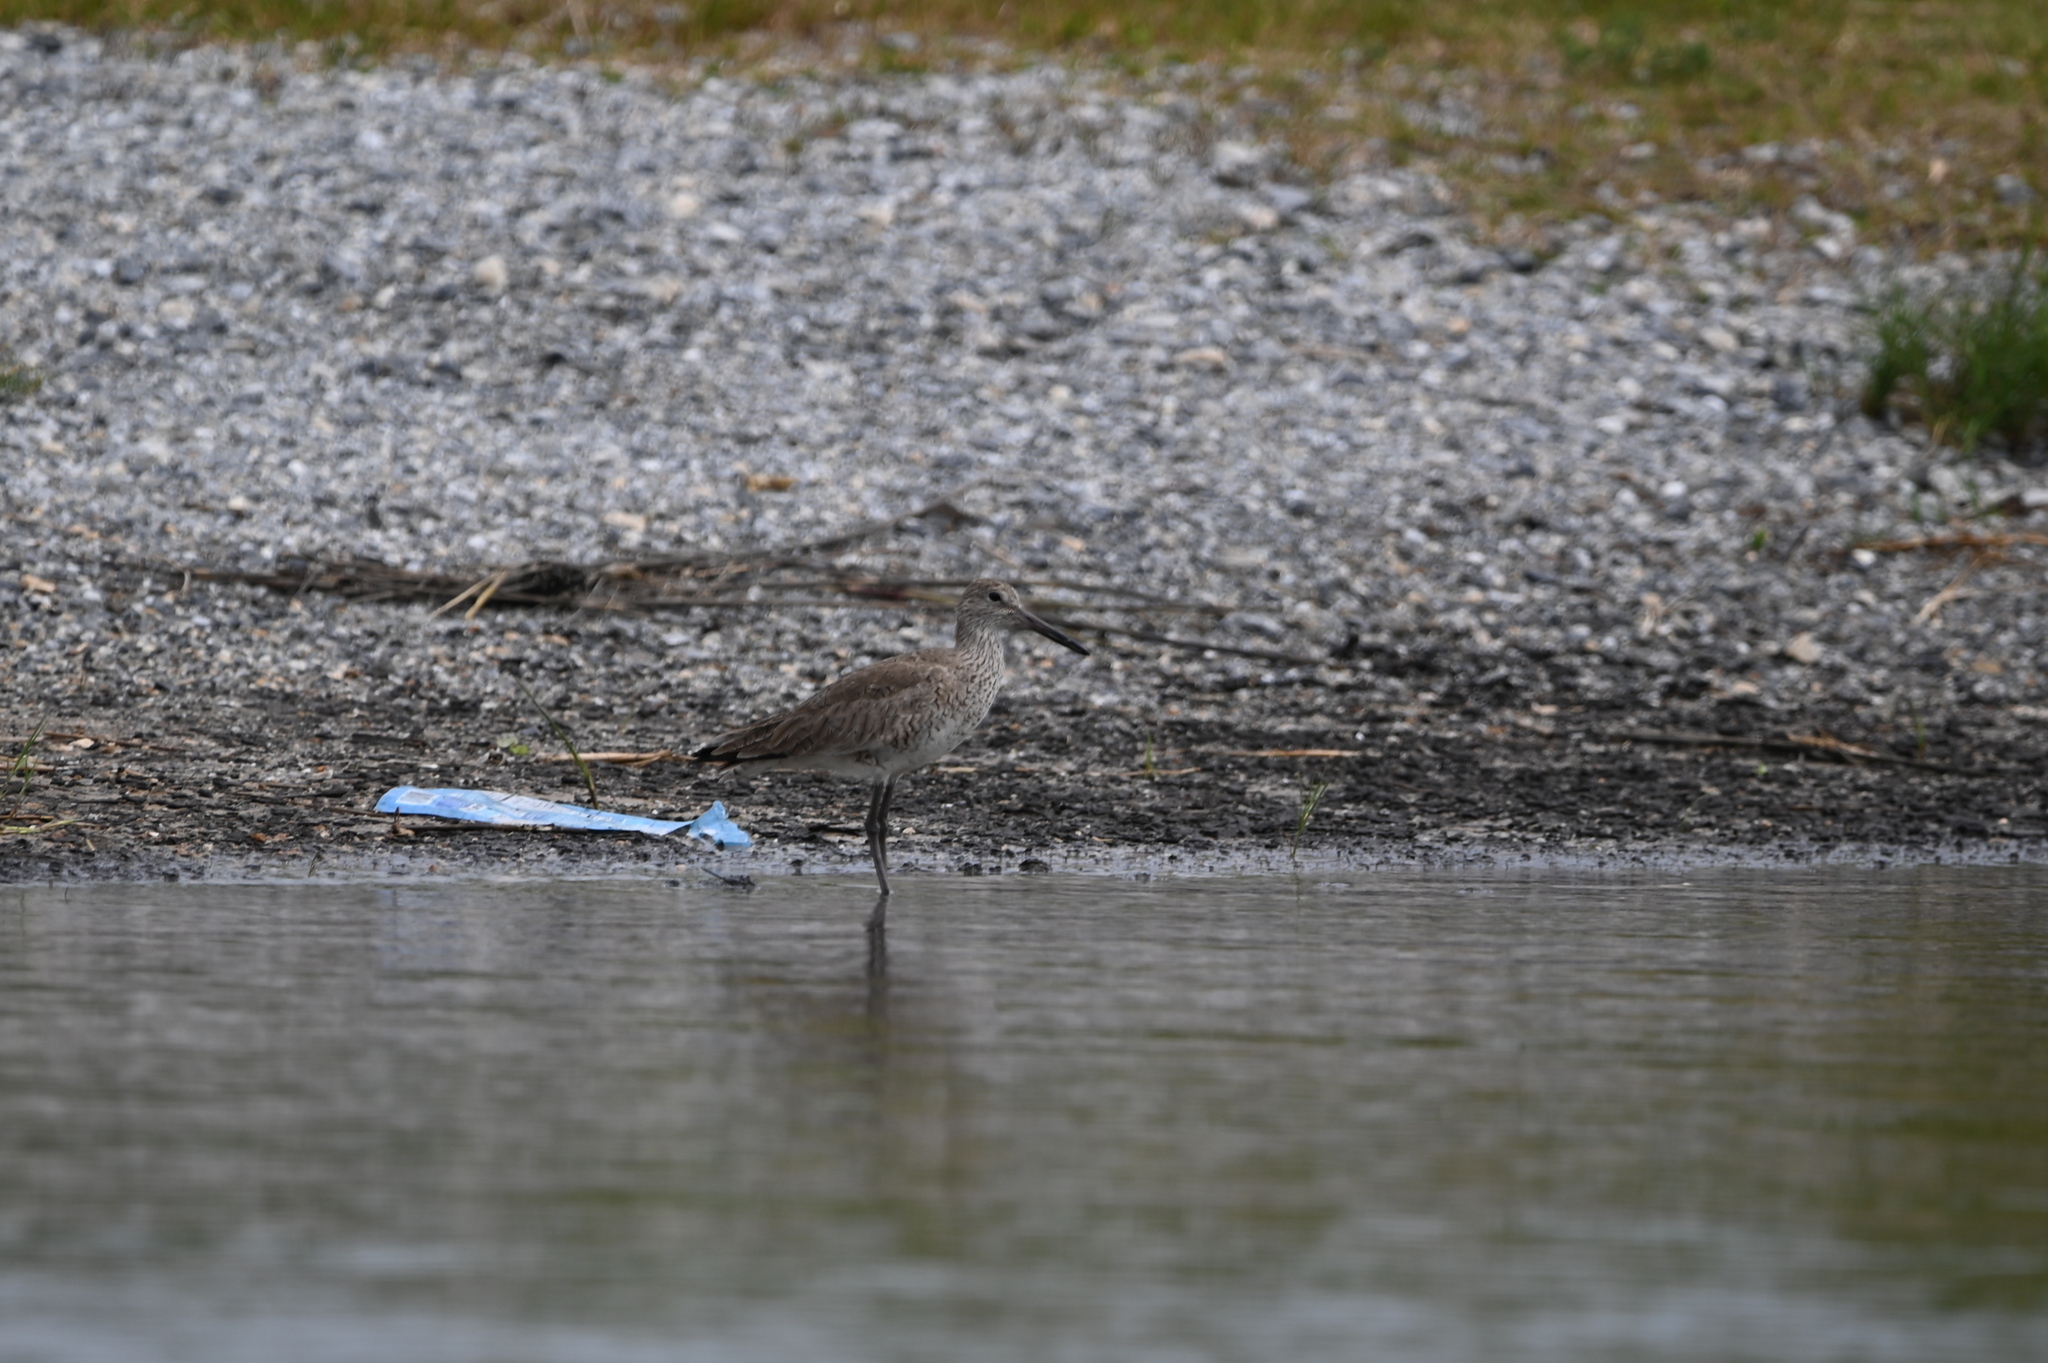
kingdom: Animalia
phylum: Chordata
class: Aves
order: Charadriiformes
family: Scolopacidae
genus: Tringa
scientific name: Tringa semipalmata
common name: Willet
